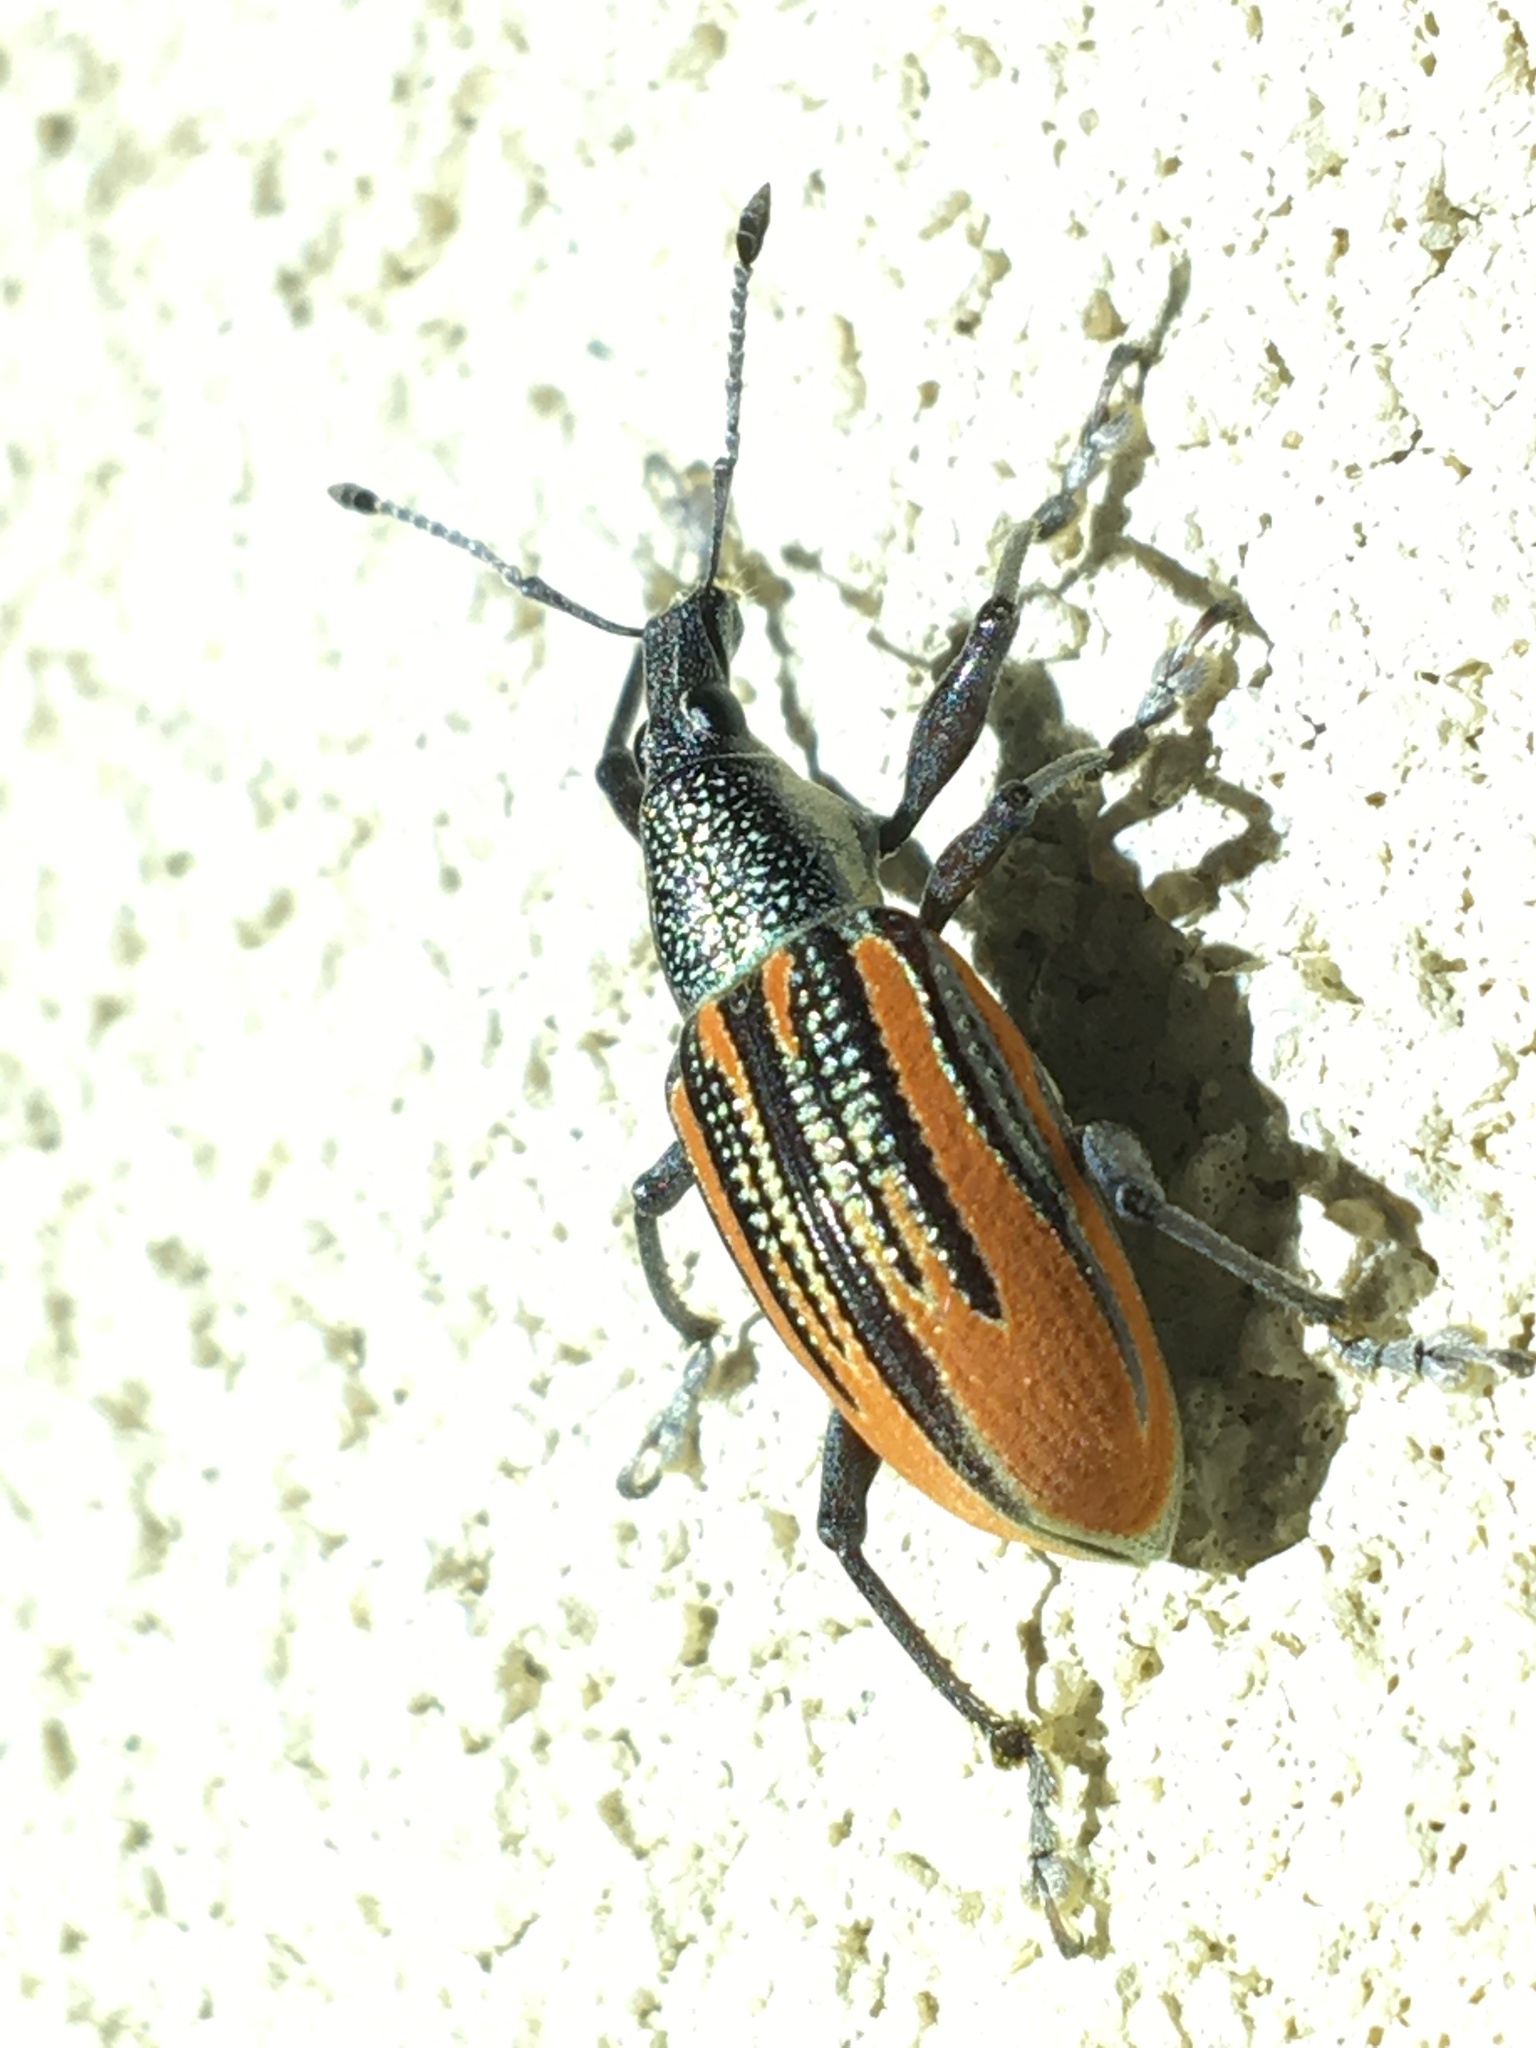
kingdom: Animalia
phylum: Arthropoda
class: Insecta
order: Coleoptera
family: Curculionidae
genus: Diaprepes
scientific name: Diaprepes abbreviatus
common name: Root weevil
